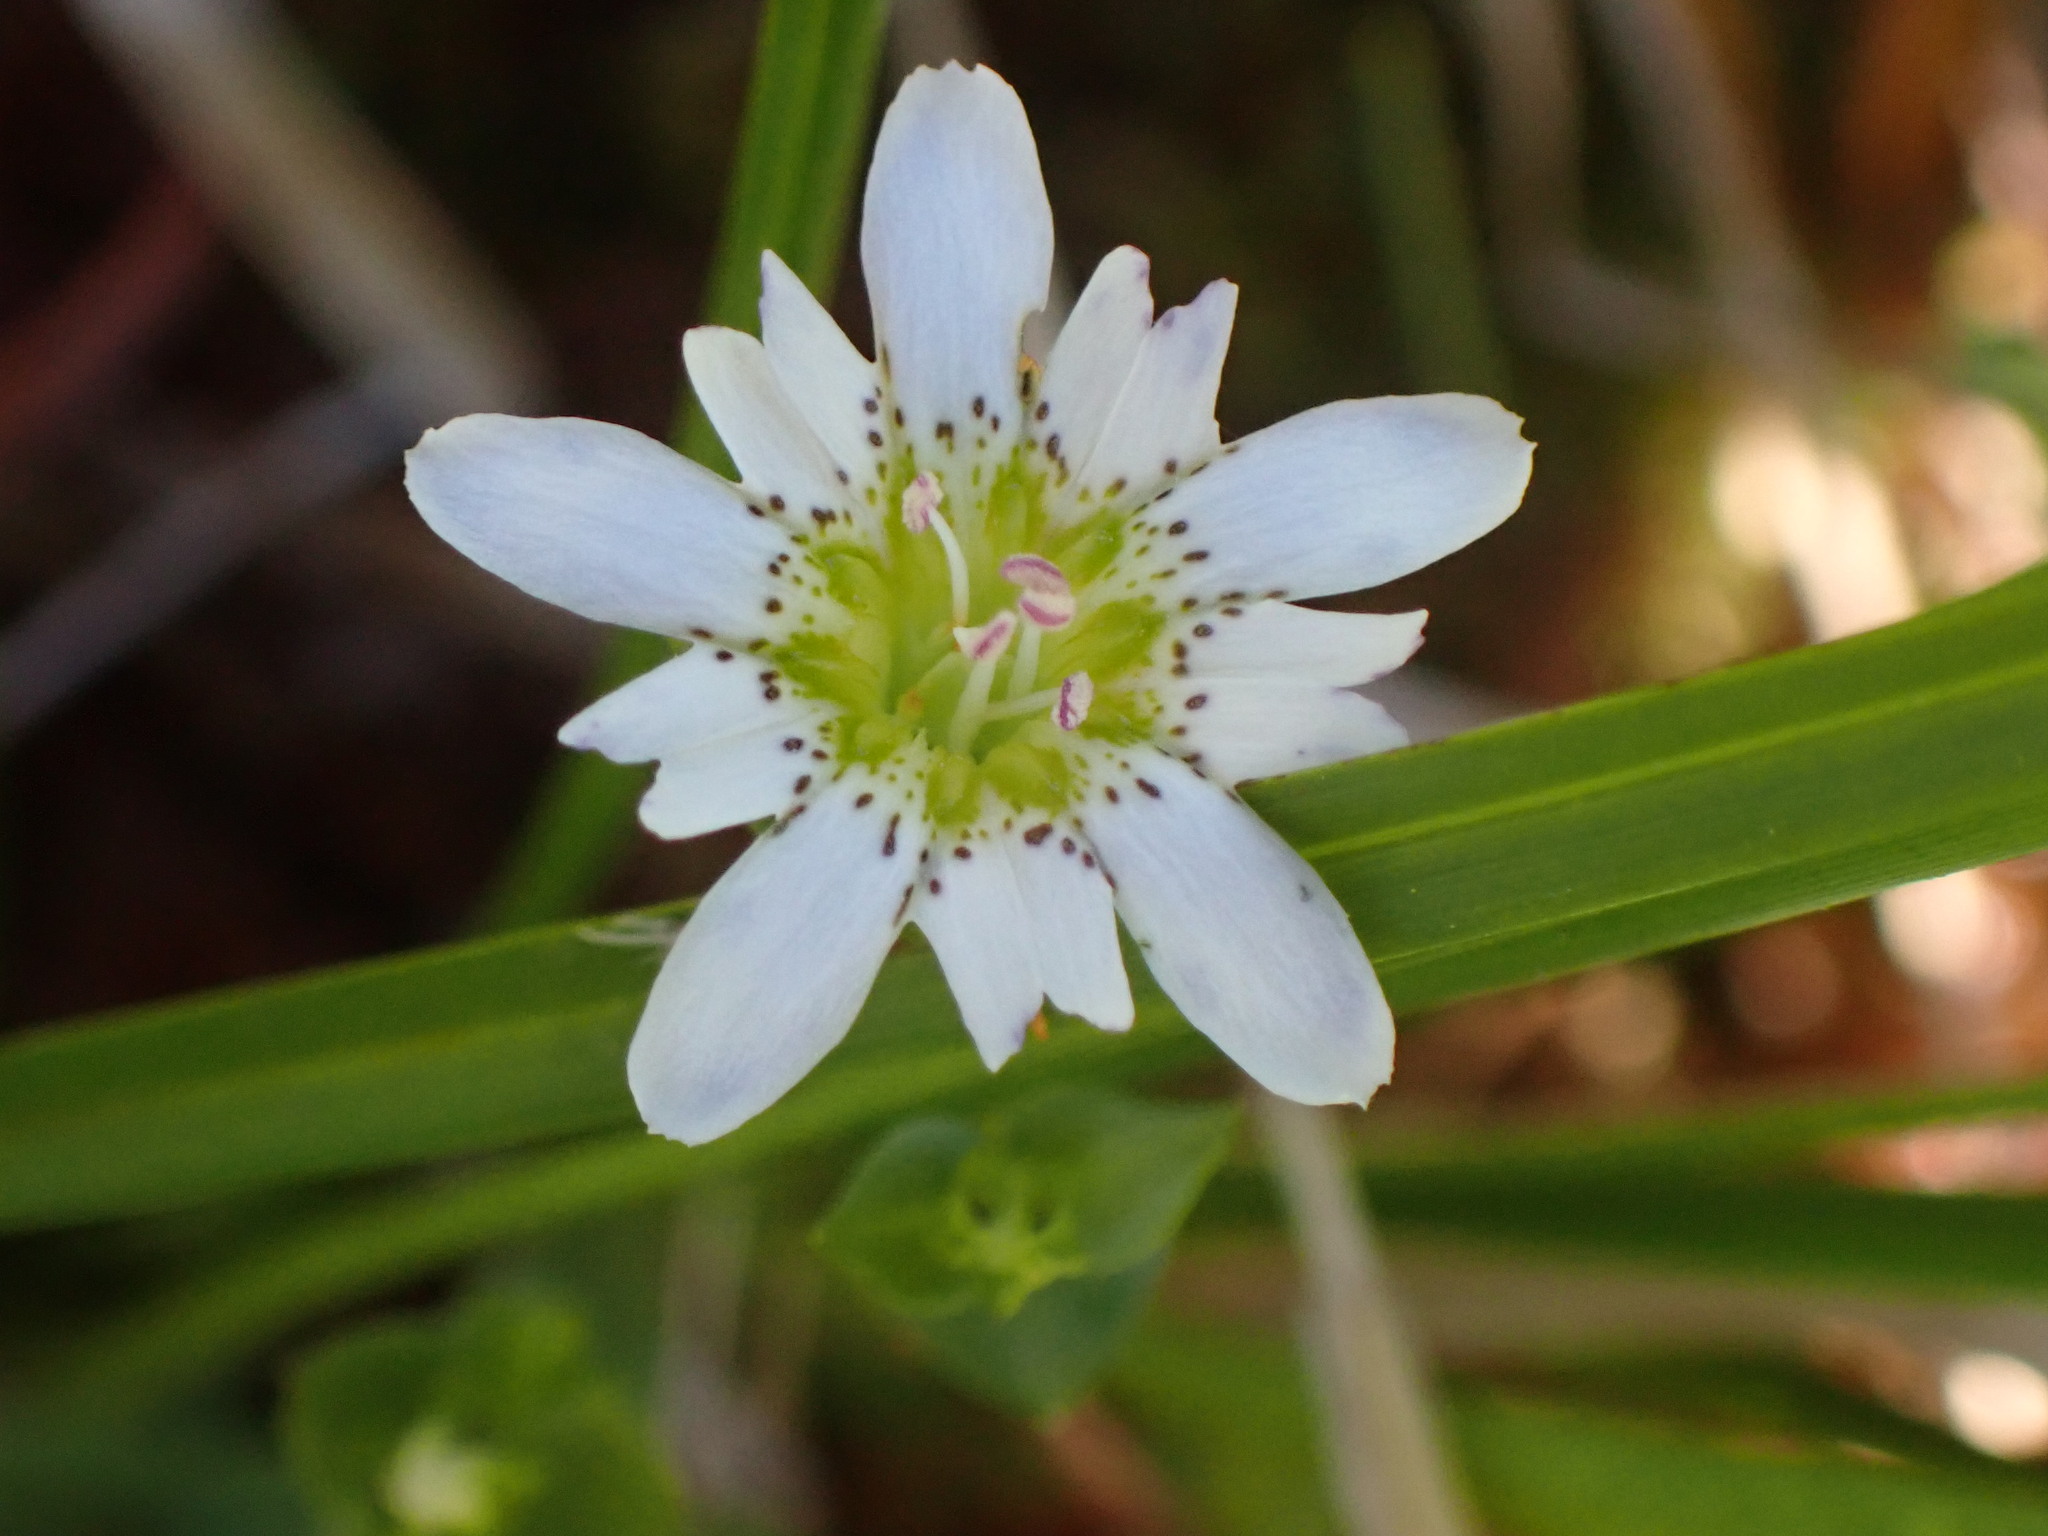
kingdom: Plantae
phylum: Tracheophyta
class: Magnoliopsida
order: Gentianales
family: Gentianaceae
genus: Gentiana
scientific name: Gentiana douglasiana
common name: Swamp gentian
